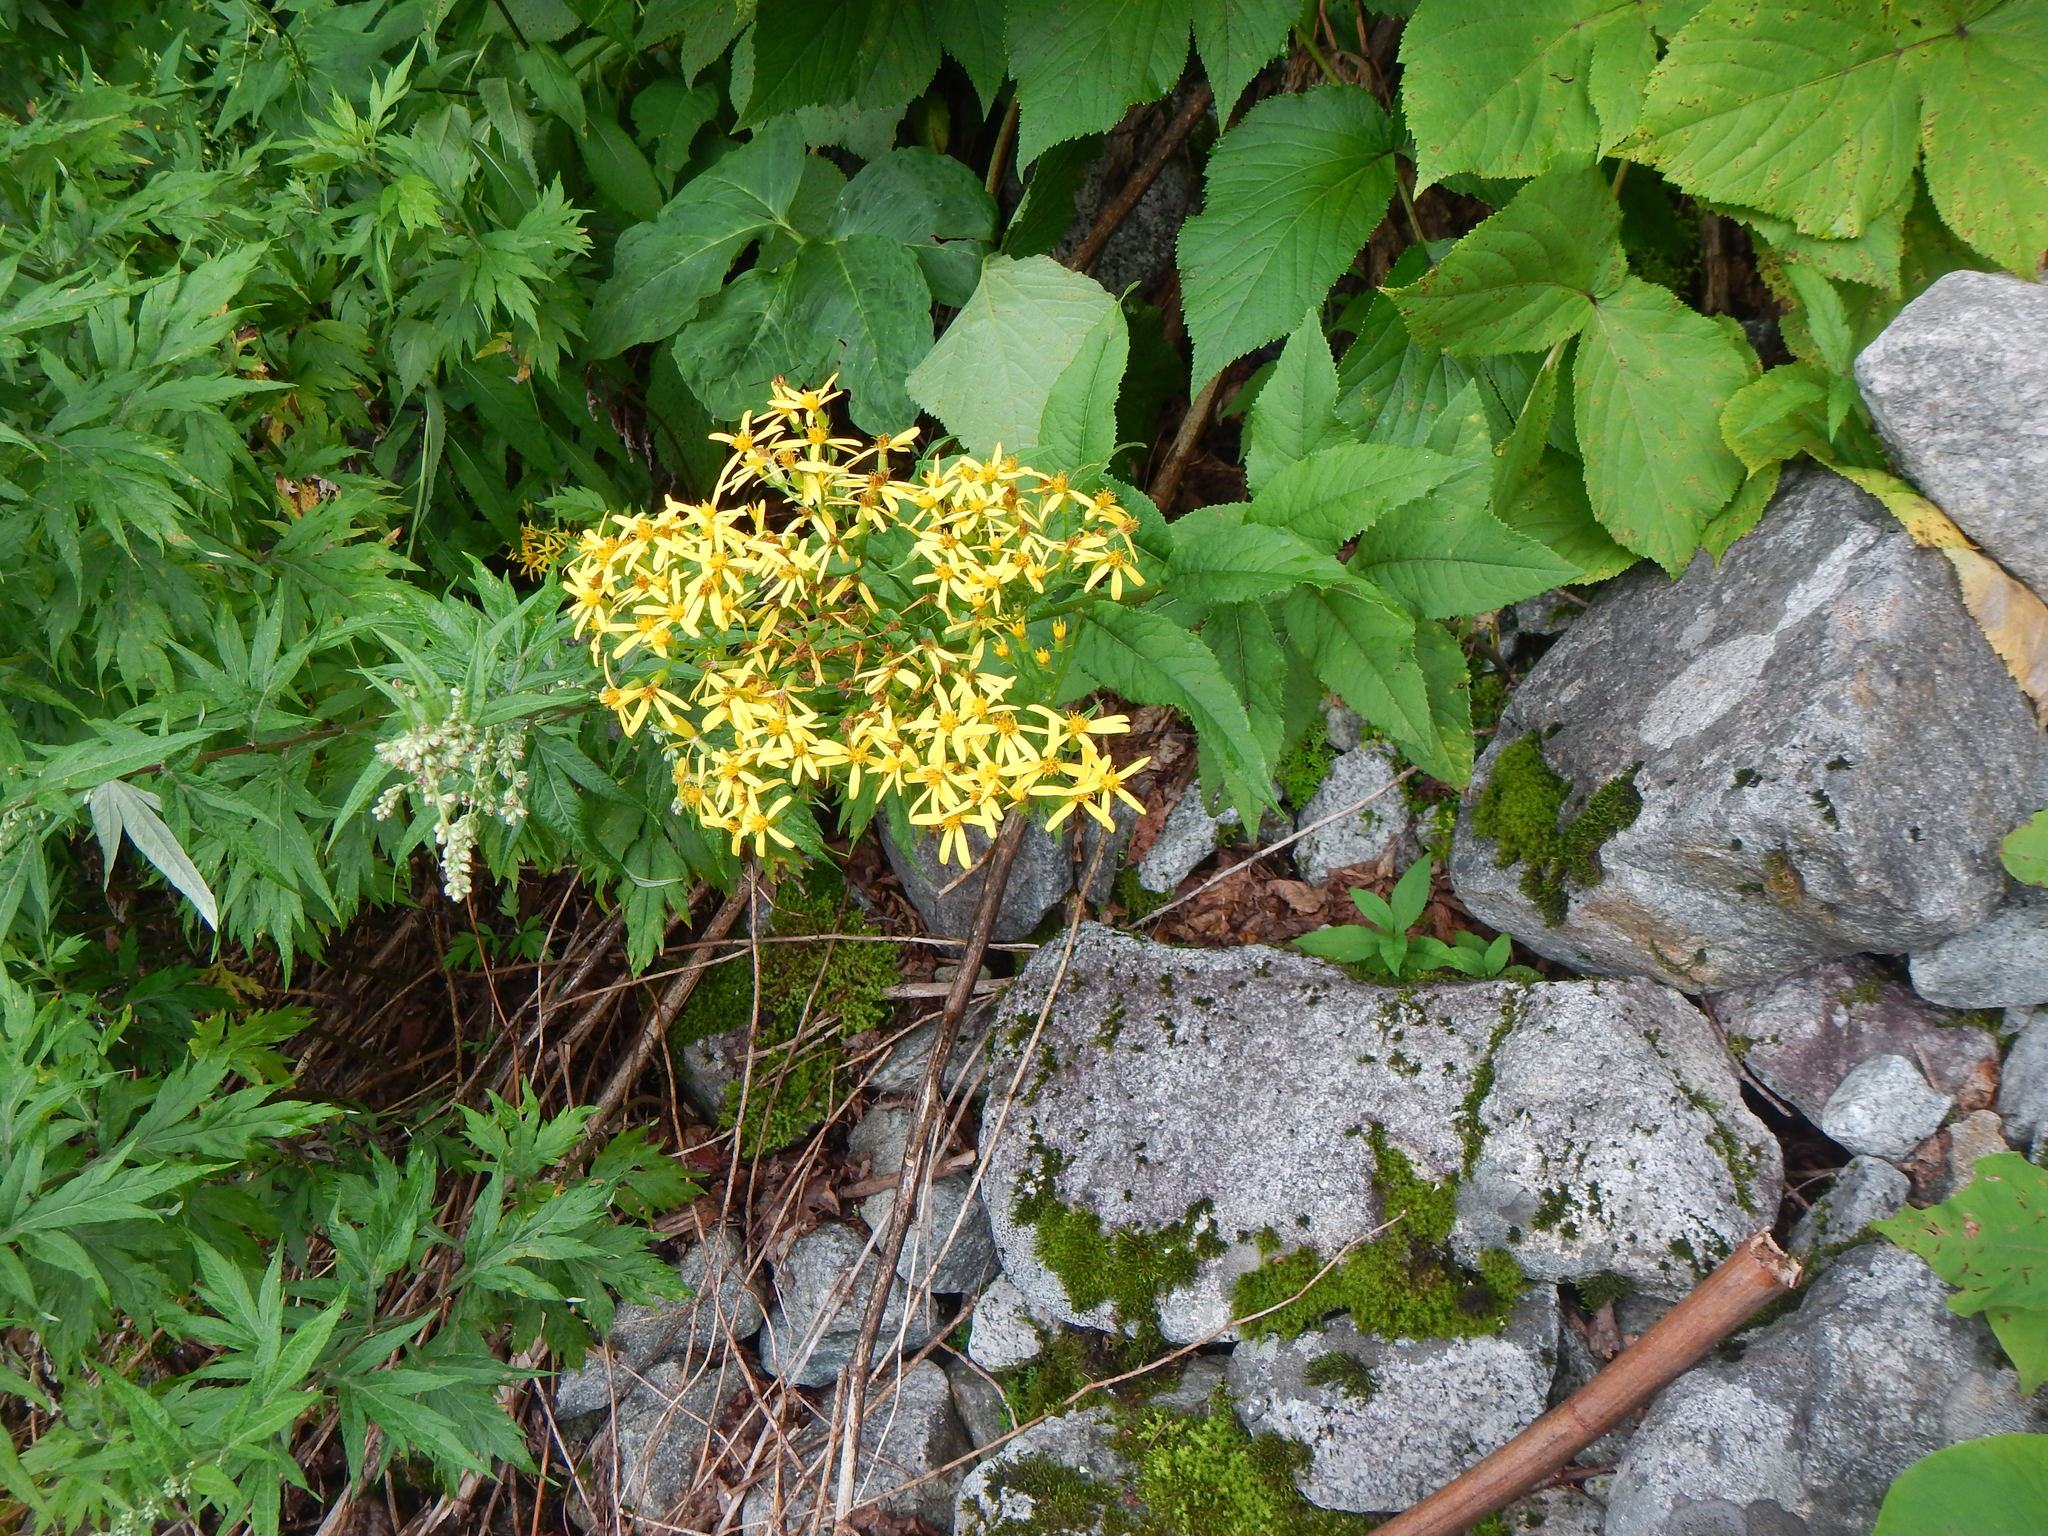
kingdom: Plantae
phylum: Tracheophyta
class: Magnoliopsida
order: Asterales
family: Asteraceae
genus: Senecio
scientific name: Senecio nemorensis
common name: Alpine ragwort
